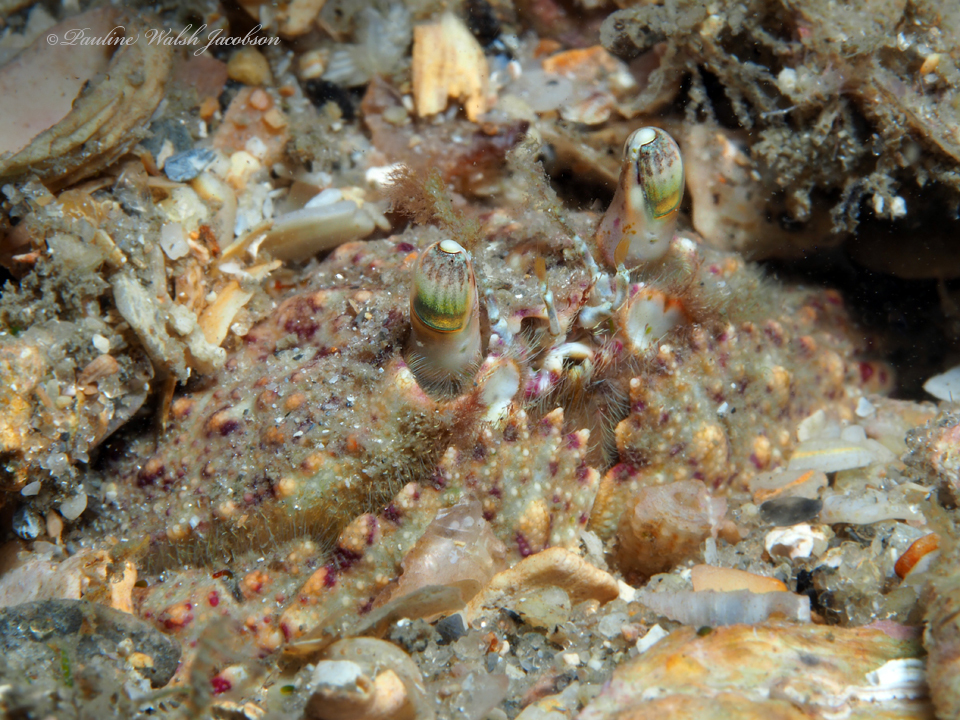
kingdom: Animalia
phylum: Arthropoda
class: Malacostraca
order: Decapoda
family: Calappidae
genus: Cryptosoma
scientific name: Cryptosoma bairdii
